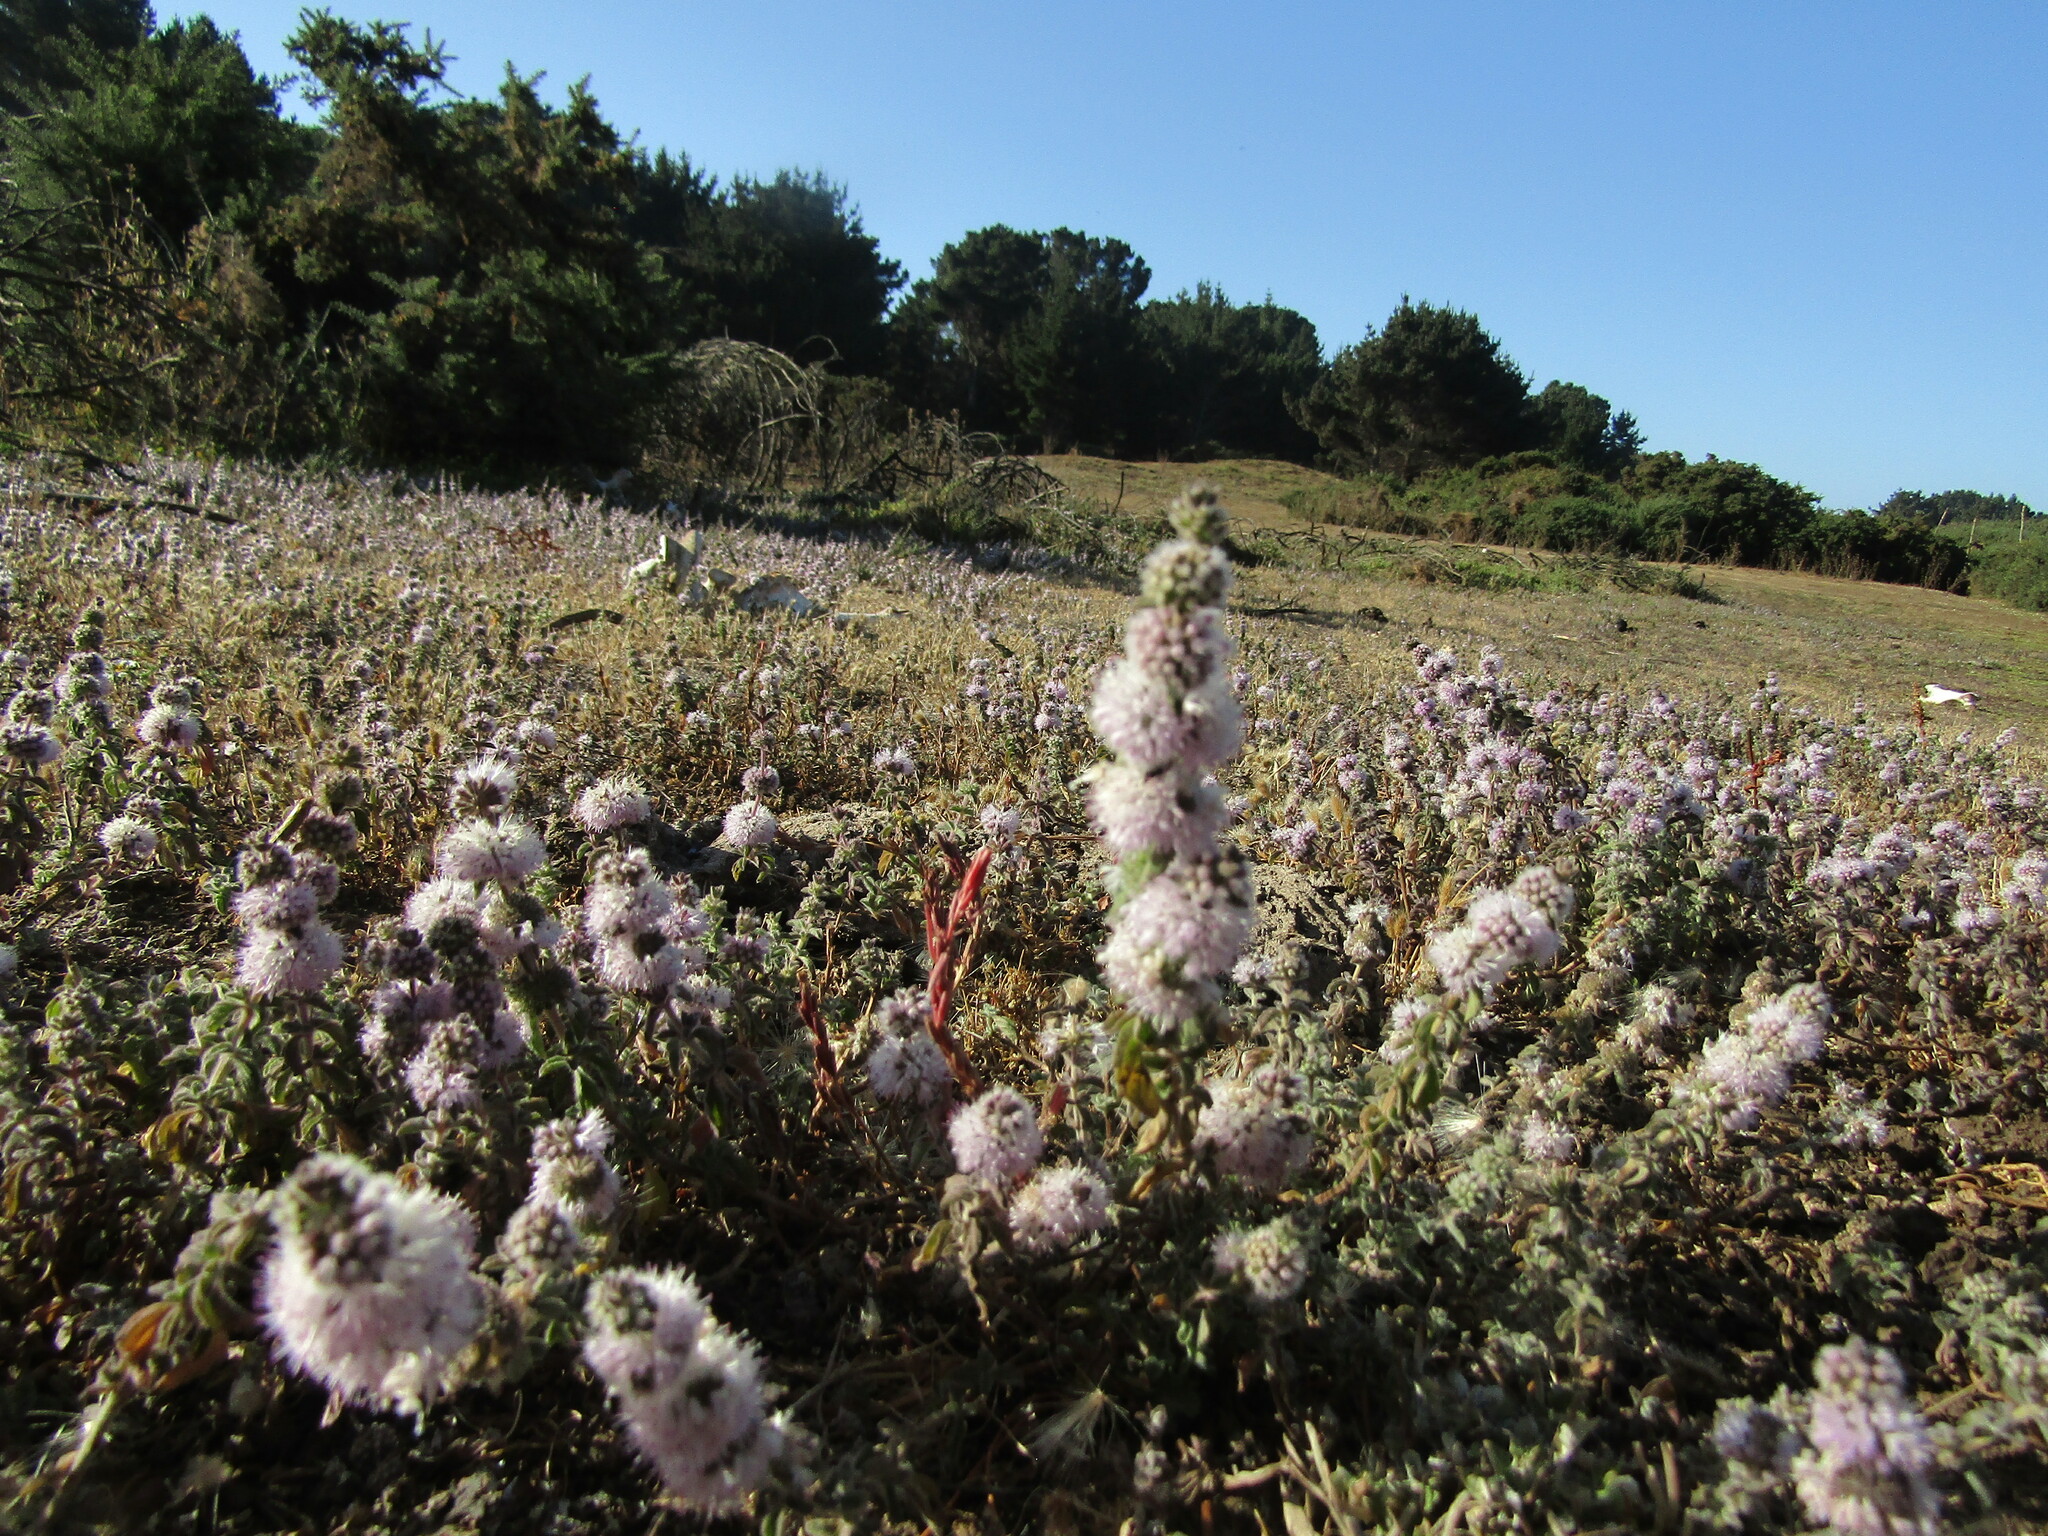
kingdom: Plantae
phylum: Tracheophyta
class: Magnoliopsida
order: Lamiales
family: Lamiaceae
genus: Mentha
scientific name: Mentha pulegium
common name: Pennyroyal
